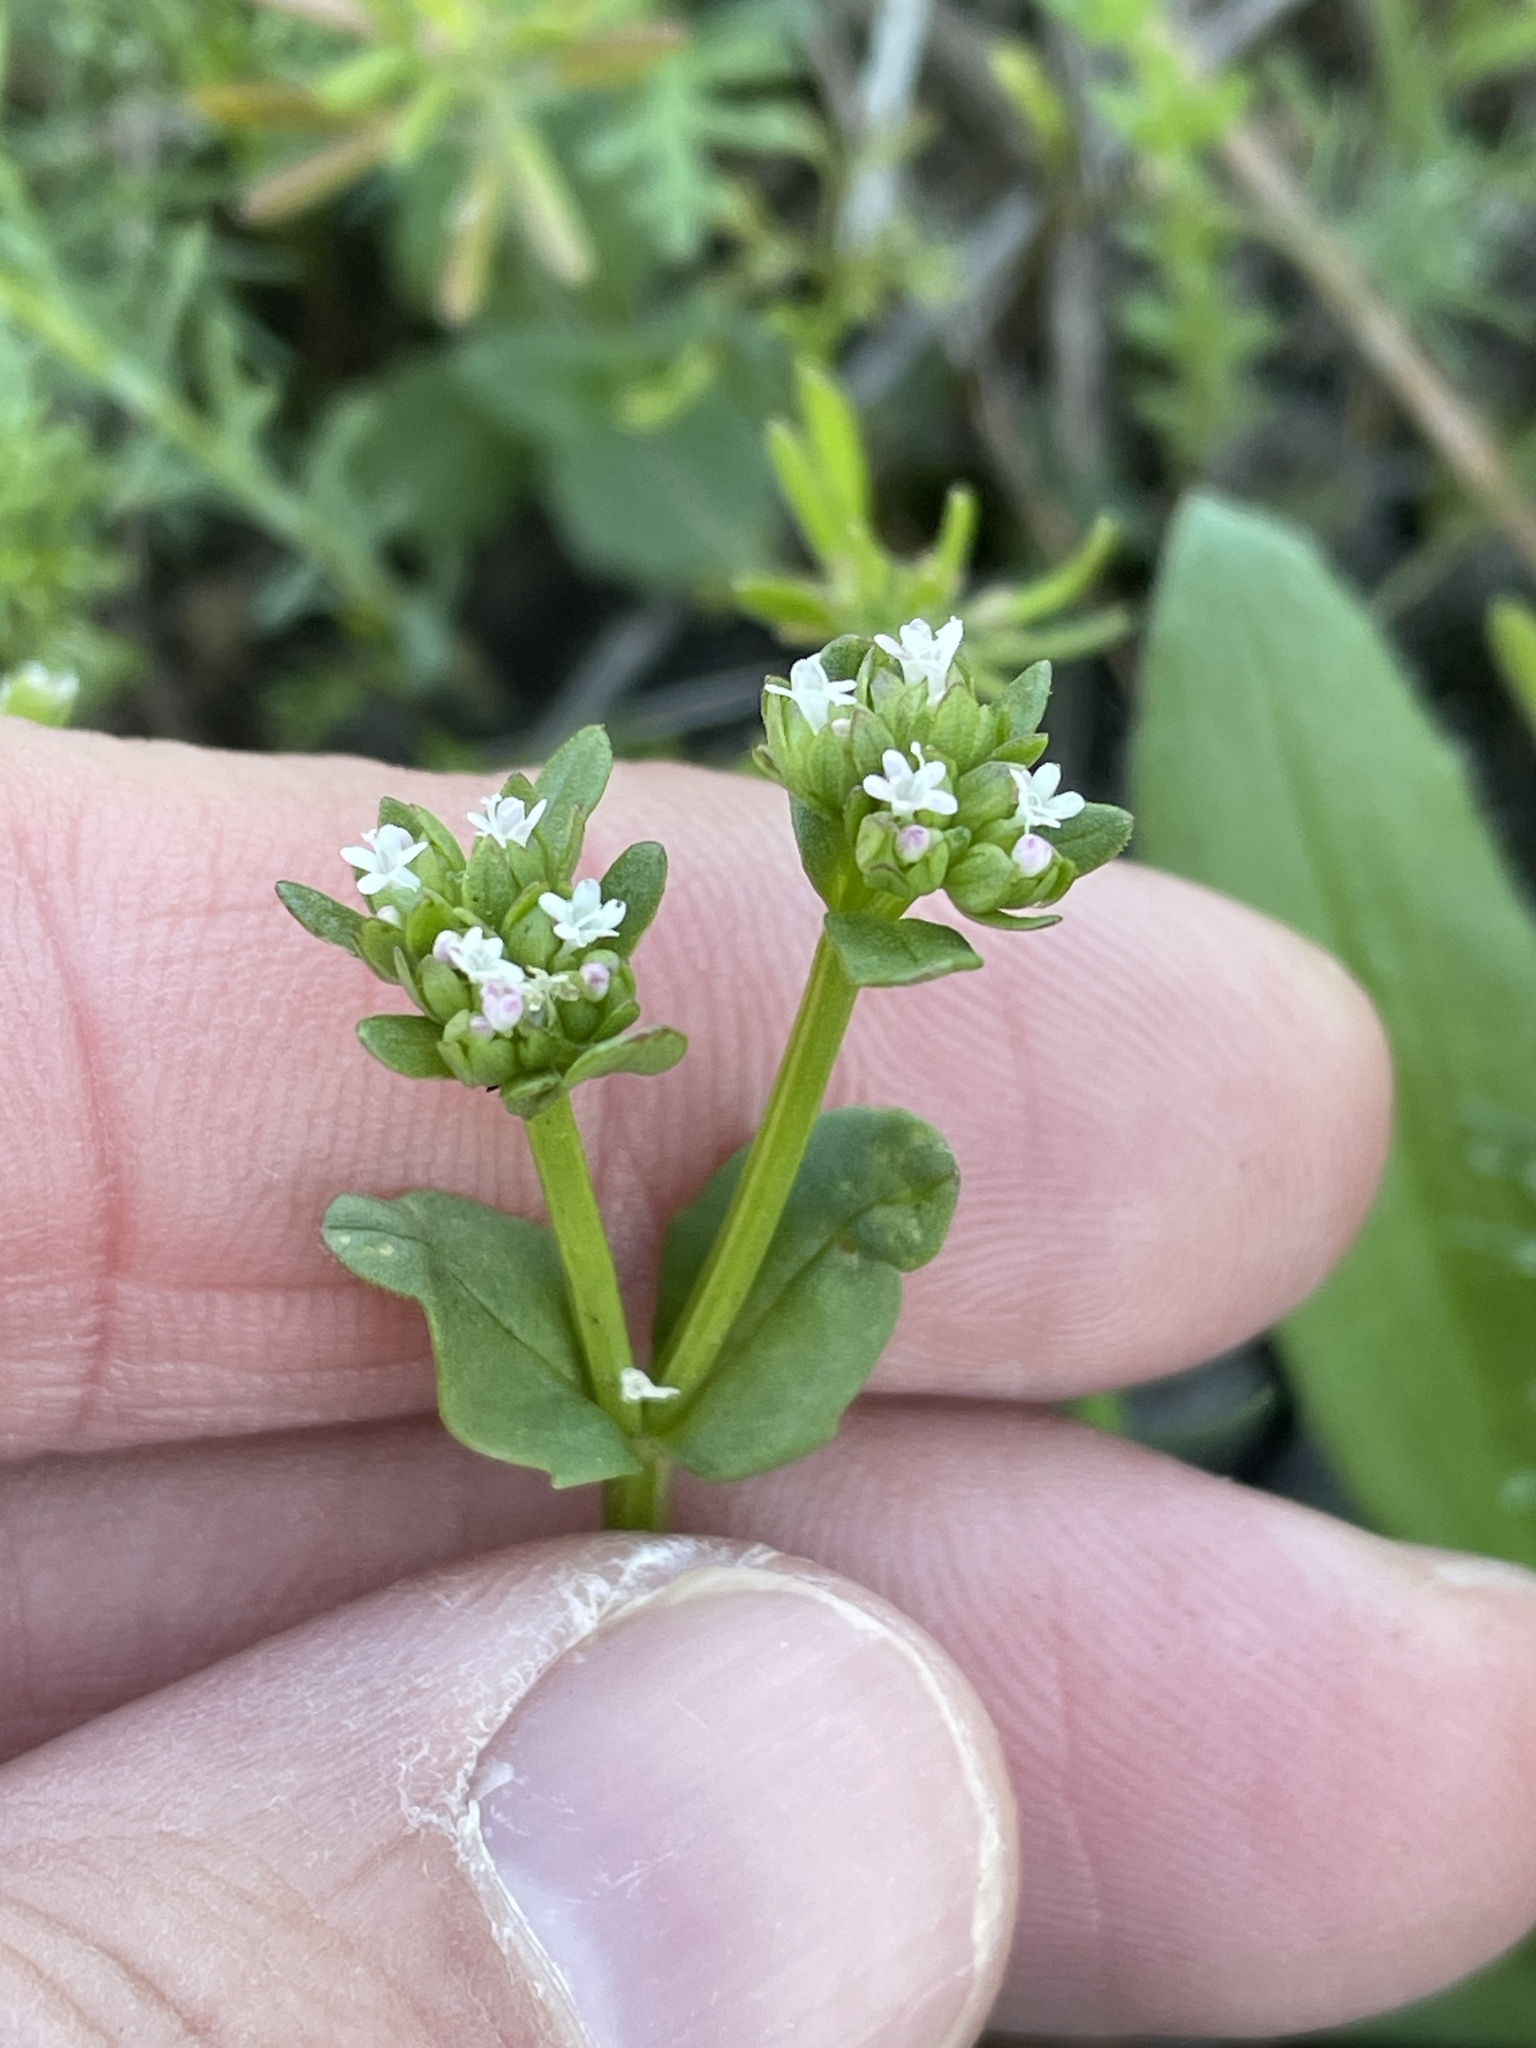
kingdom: Plantae
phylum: Tracheophyta
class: Magnoliopsida
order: Dipsacales
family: Caprifoliaceae
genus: Valerianella
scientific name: Valerianella radiata
